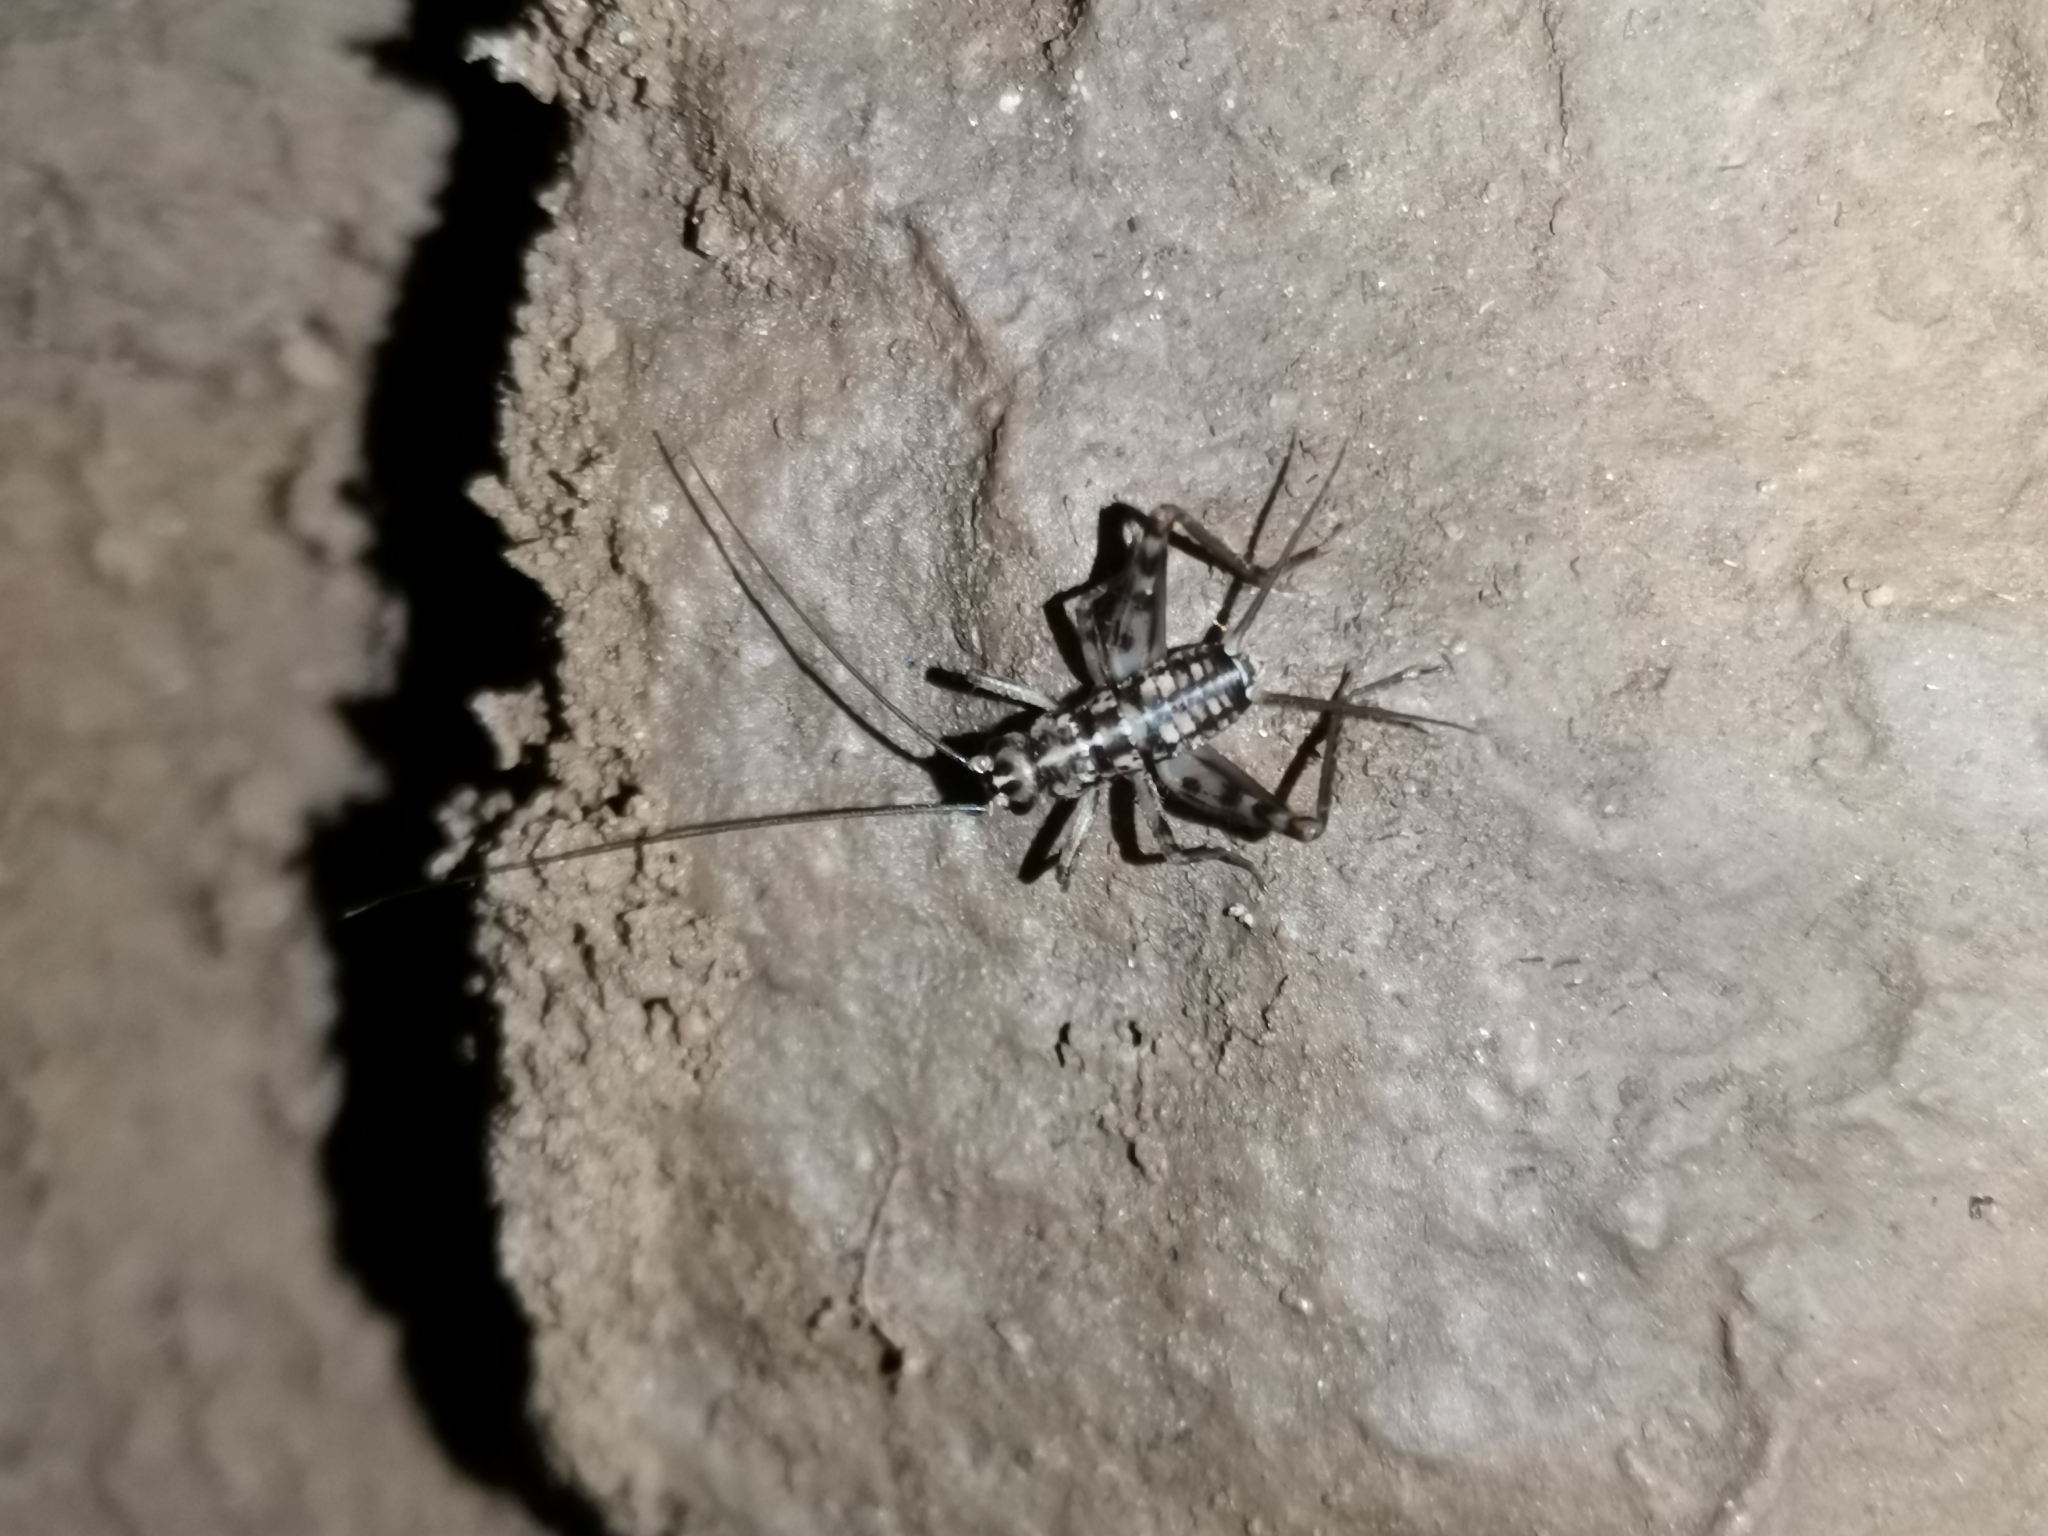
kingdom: Animalia
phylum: Arthropoda
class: Insecta
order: Orthoptera
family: Gryllidae
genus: Gryllomorpha
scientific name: Gryllomorpha dalmatina
